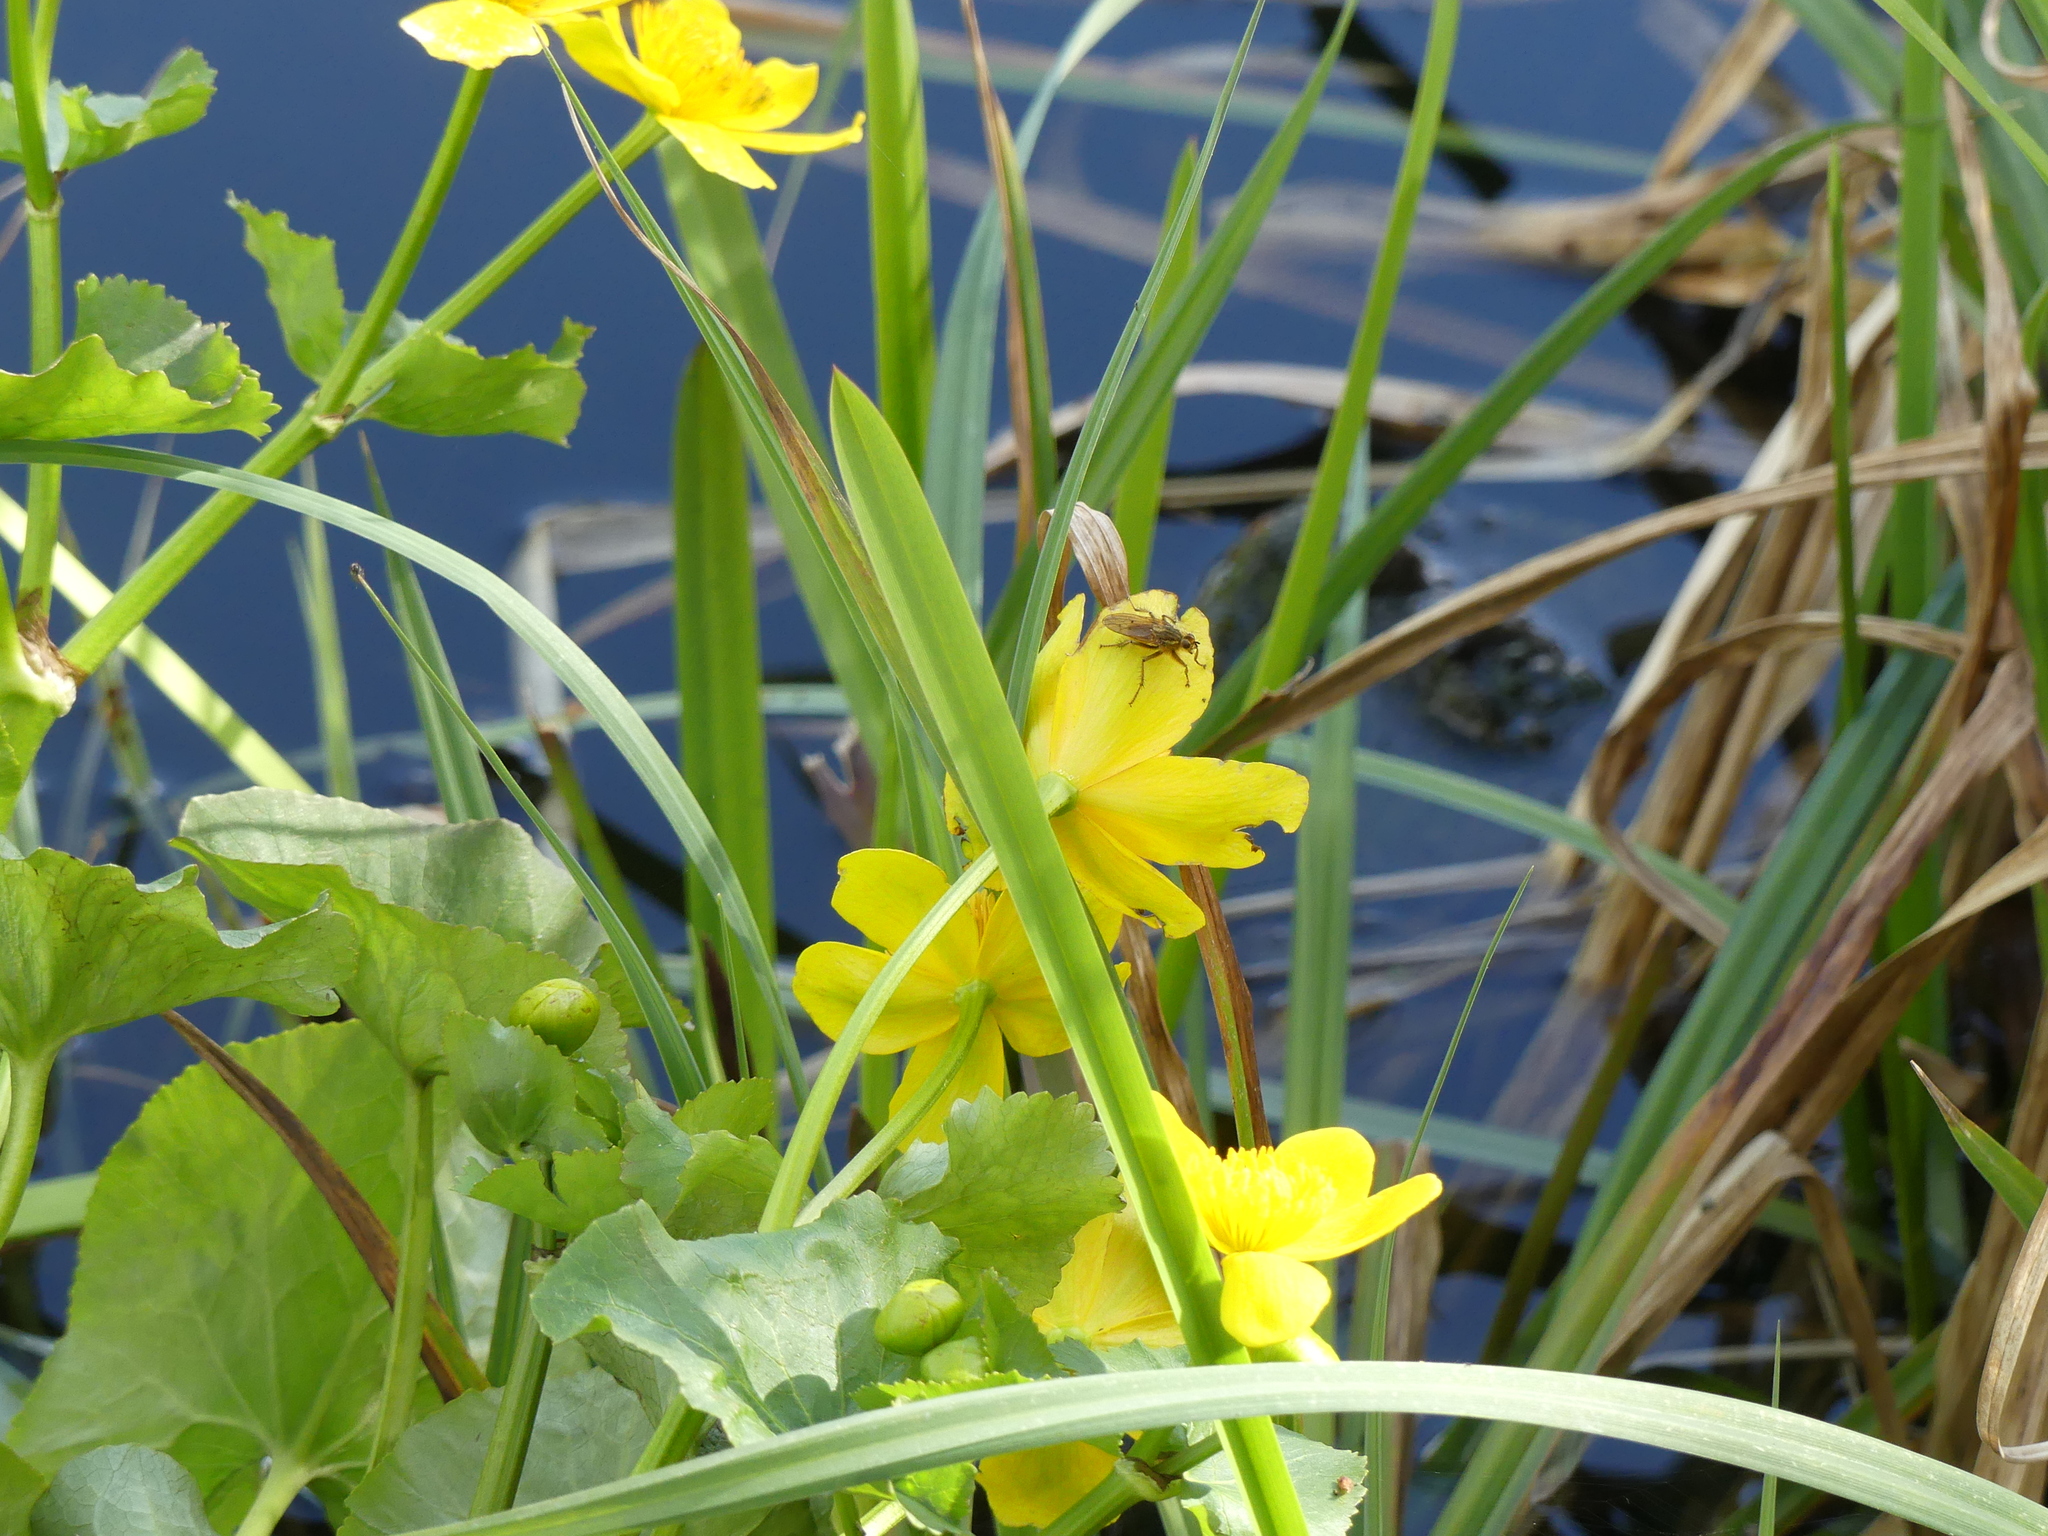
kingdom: Animalia
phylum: Arthropoda
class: Insecta
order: Diptera
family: Scathophagidae
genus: Scathophaga
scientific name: Scathophaga stercoraria
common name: Yellow dung fly
